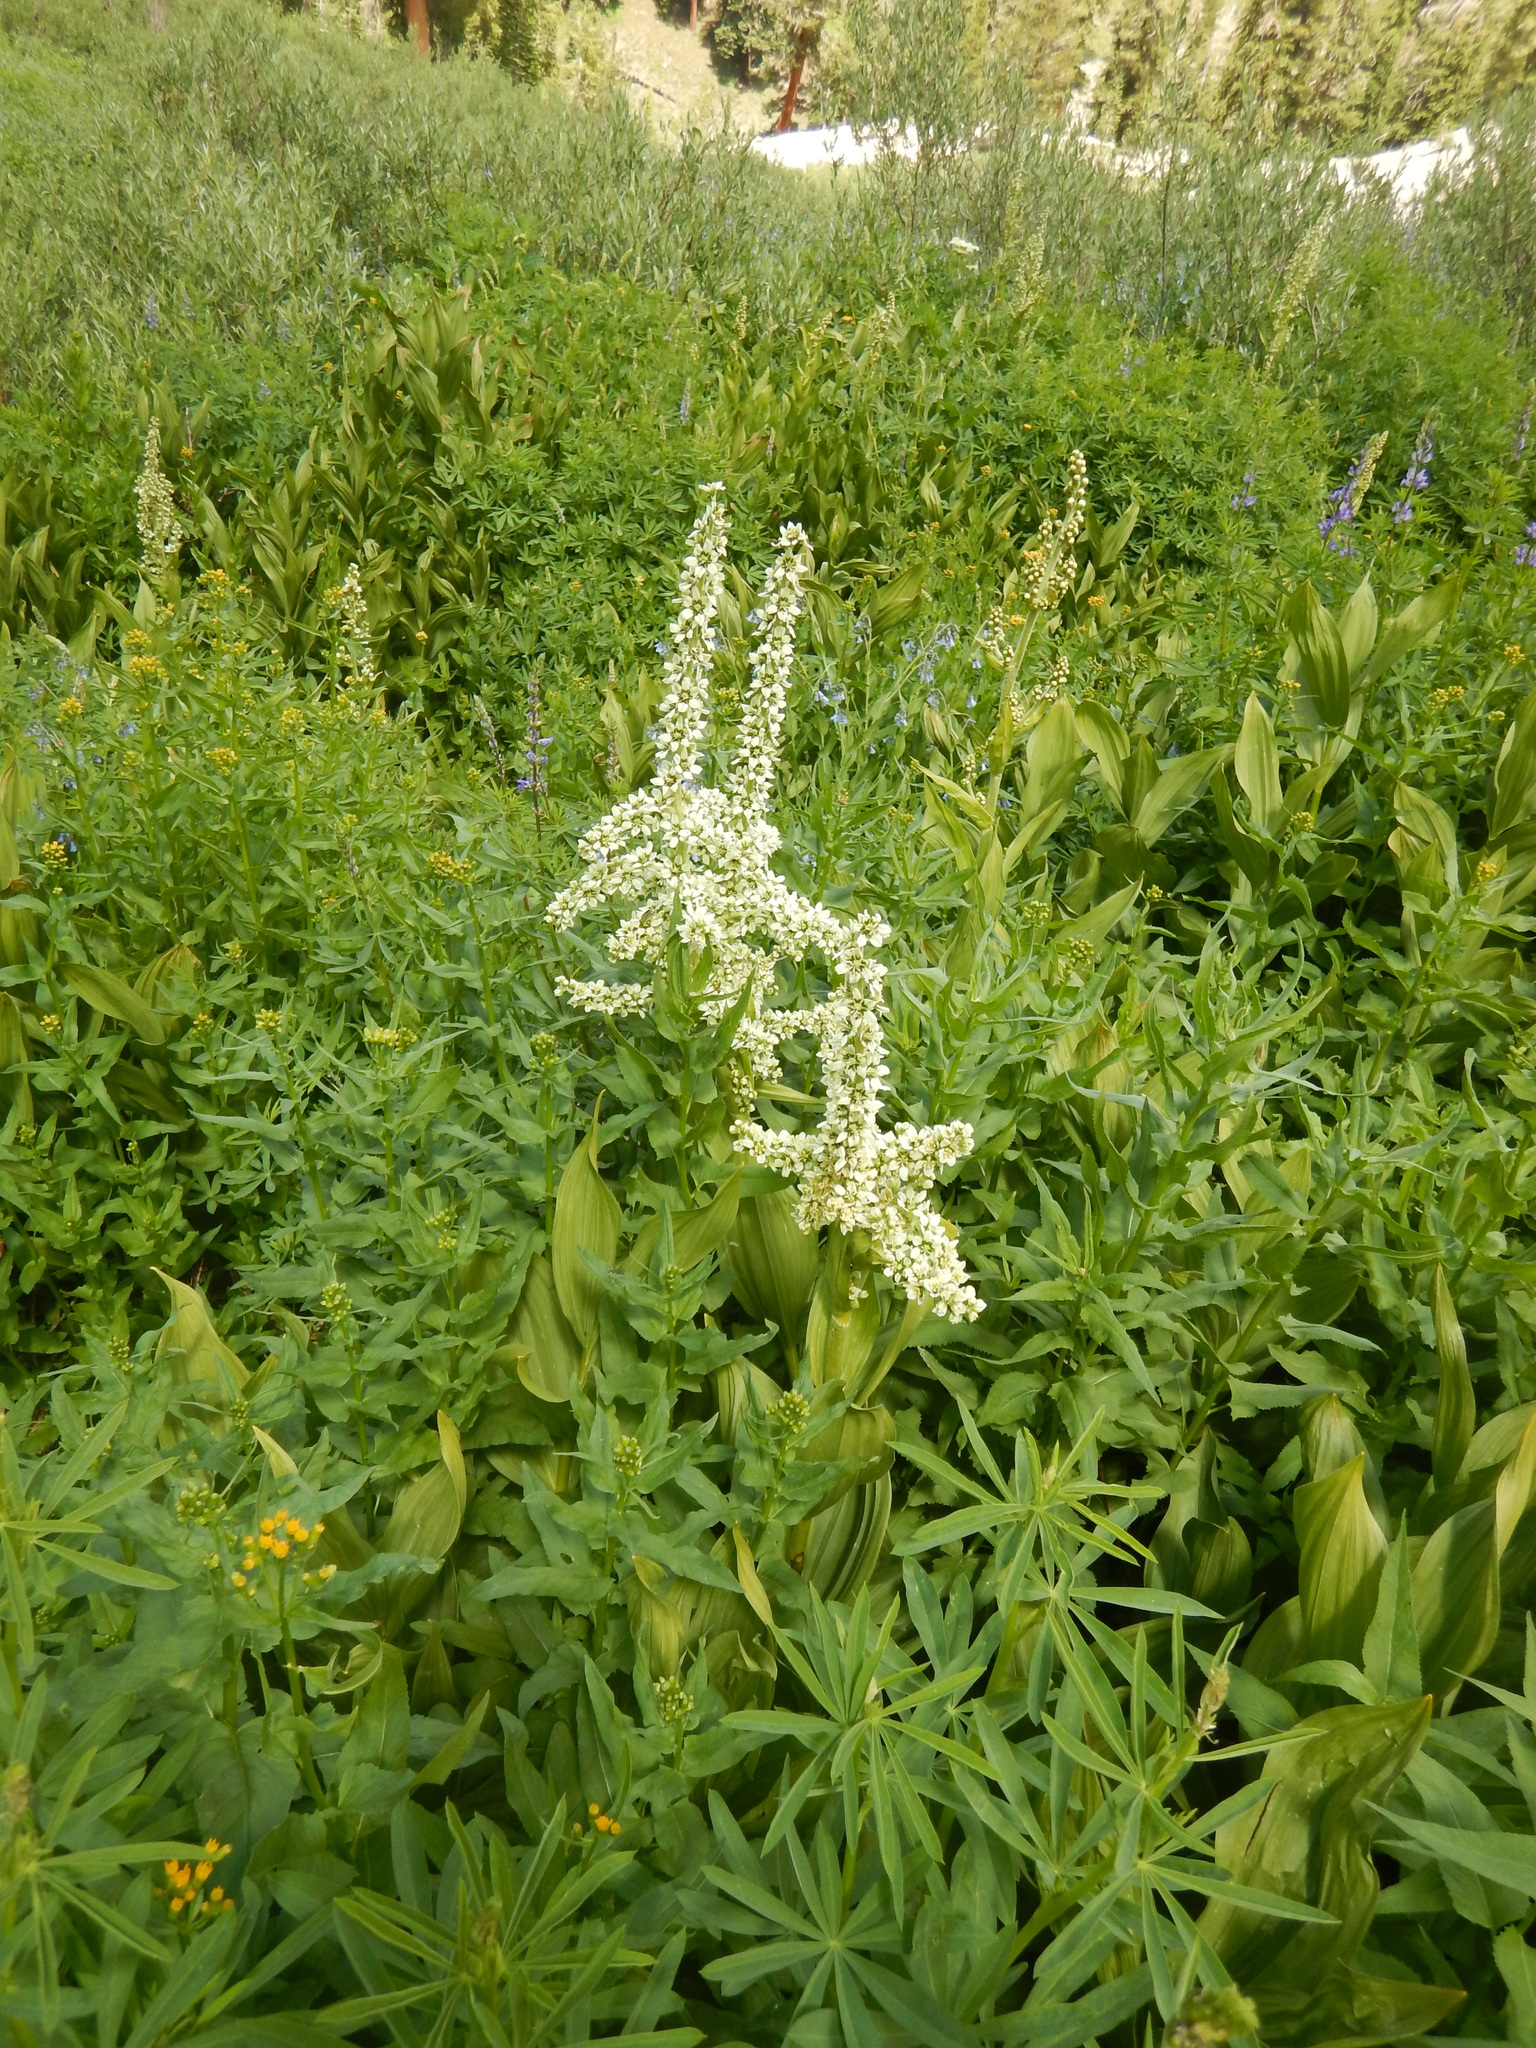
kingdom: Plantae
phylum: Tracheophyta
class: Liliopsida
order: Liliales
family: Melanthiaceae
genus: Veratrum
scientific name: Veratrum californicum
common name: California veratrum
